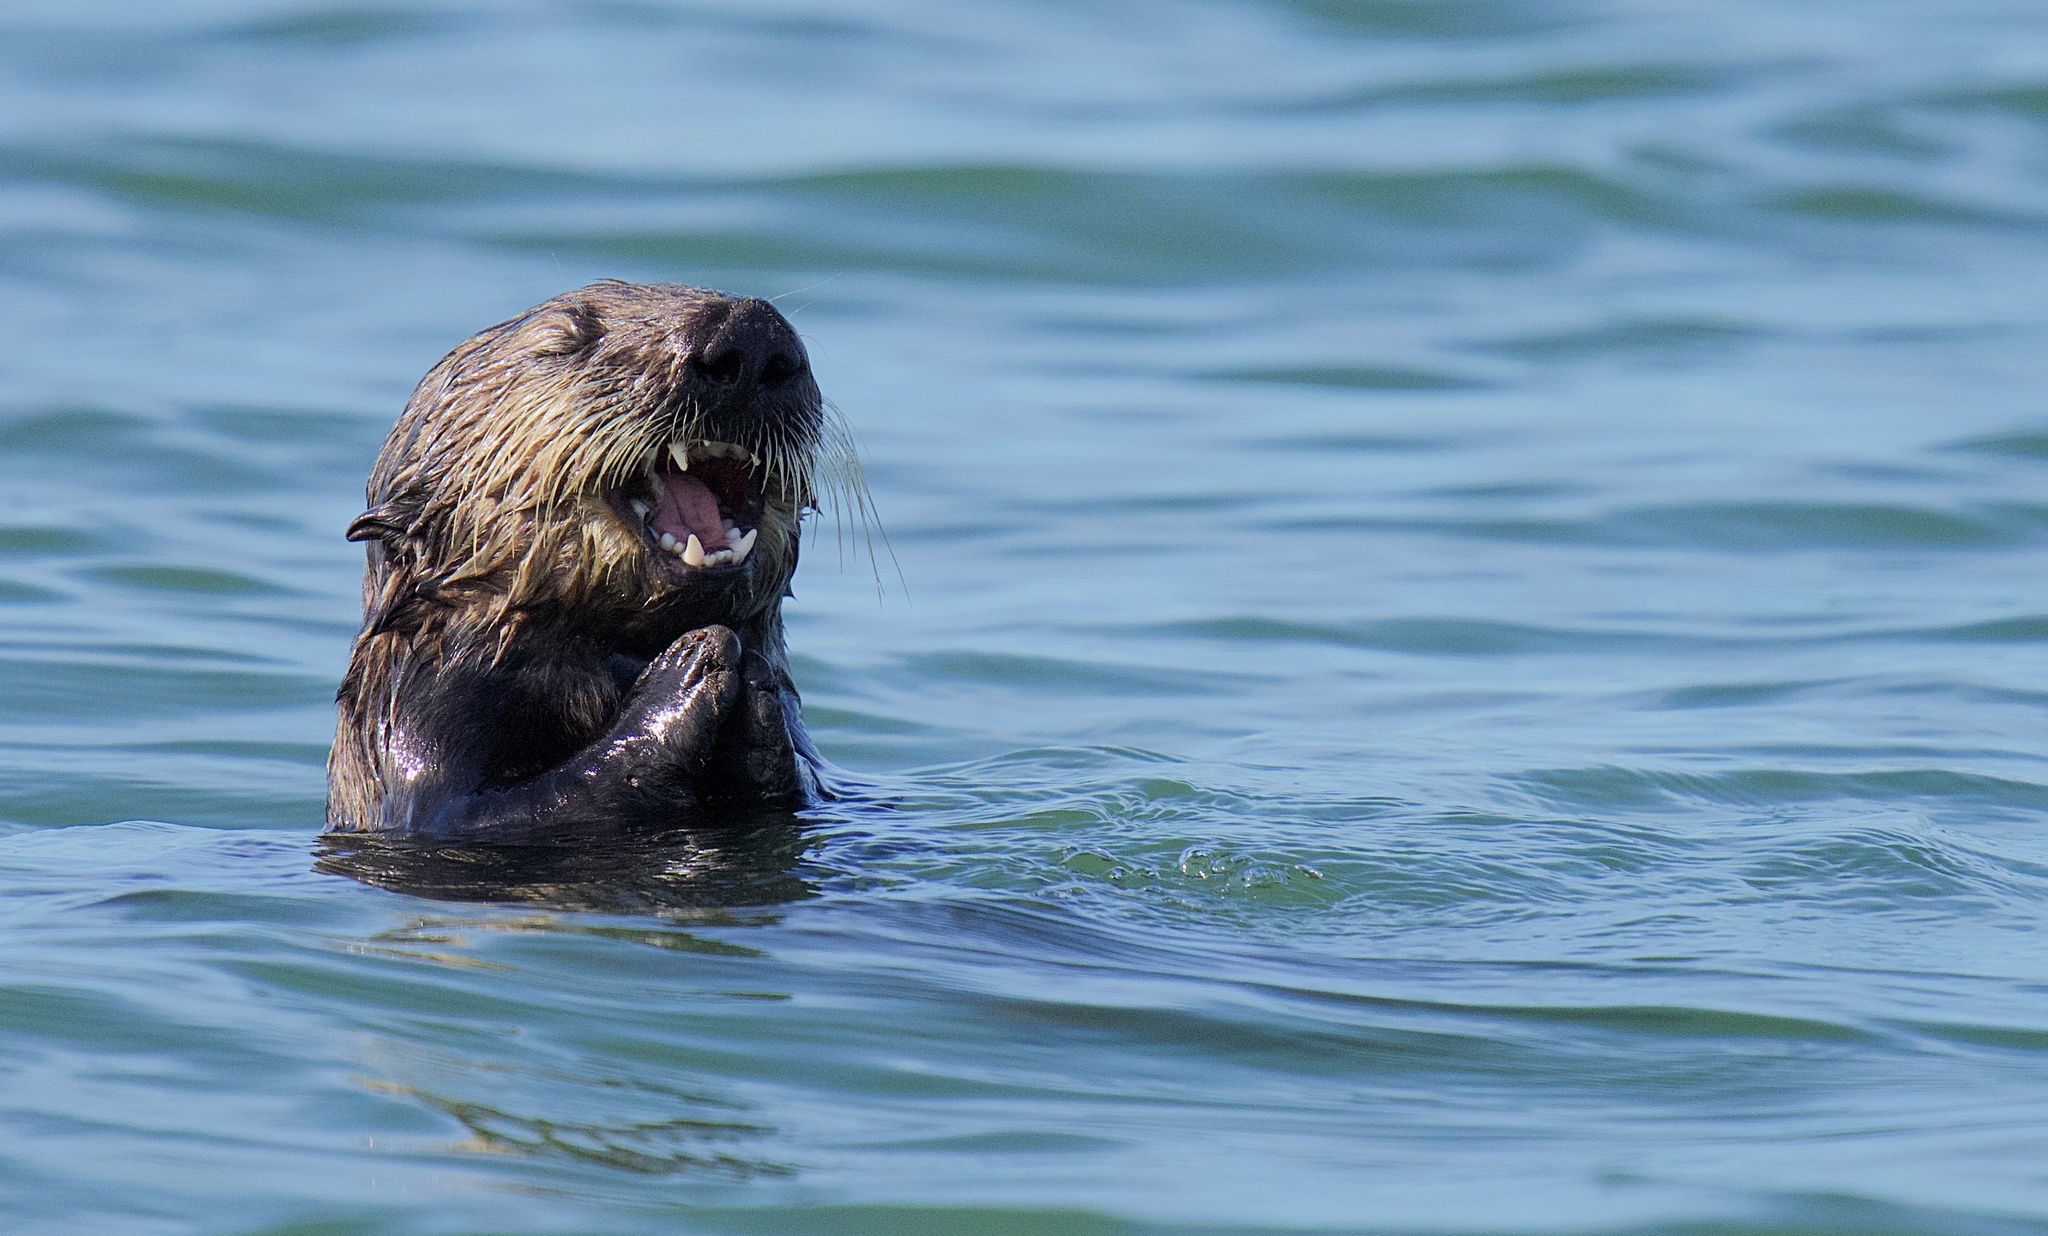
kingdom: Animalia
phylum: Chordata
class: Mammalia
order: Carnivora
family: Mustelidae
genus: Enhydra
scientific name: Enhydra lutris
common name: Sea otter
